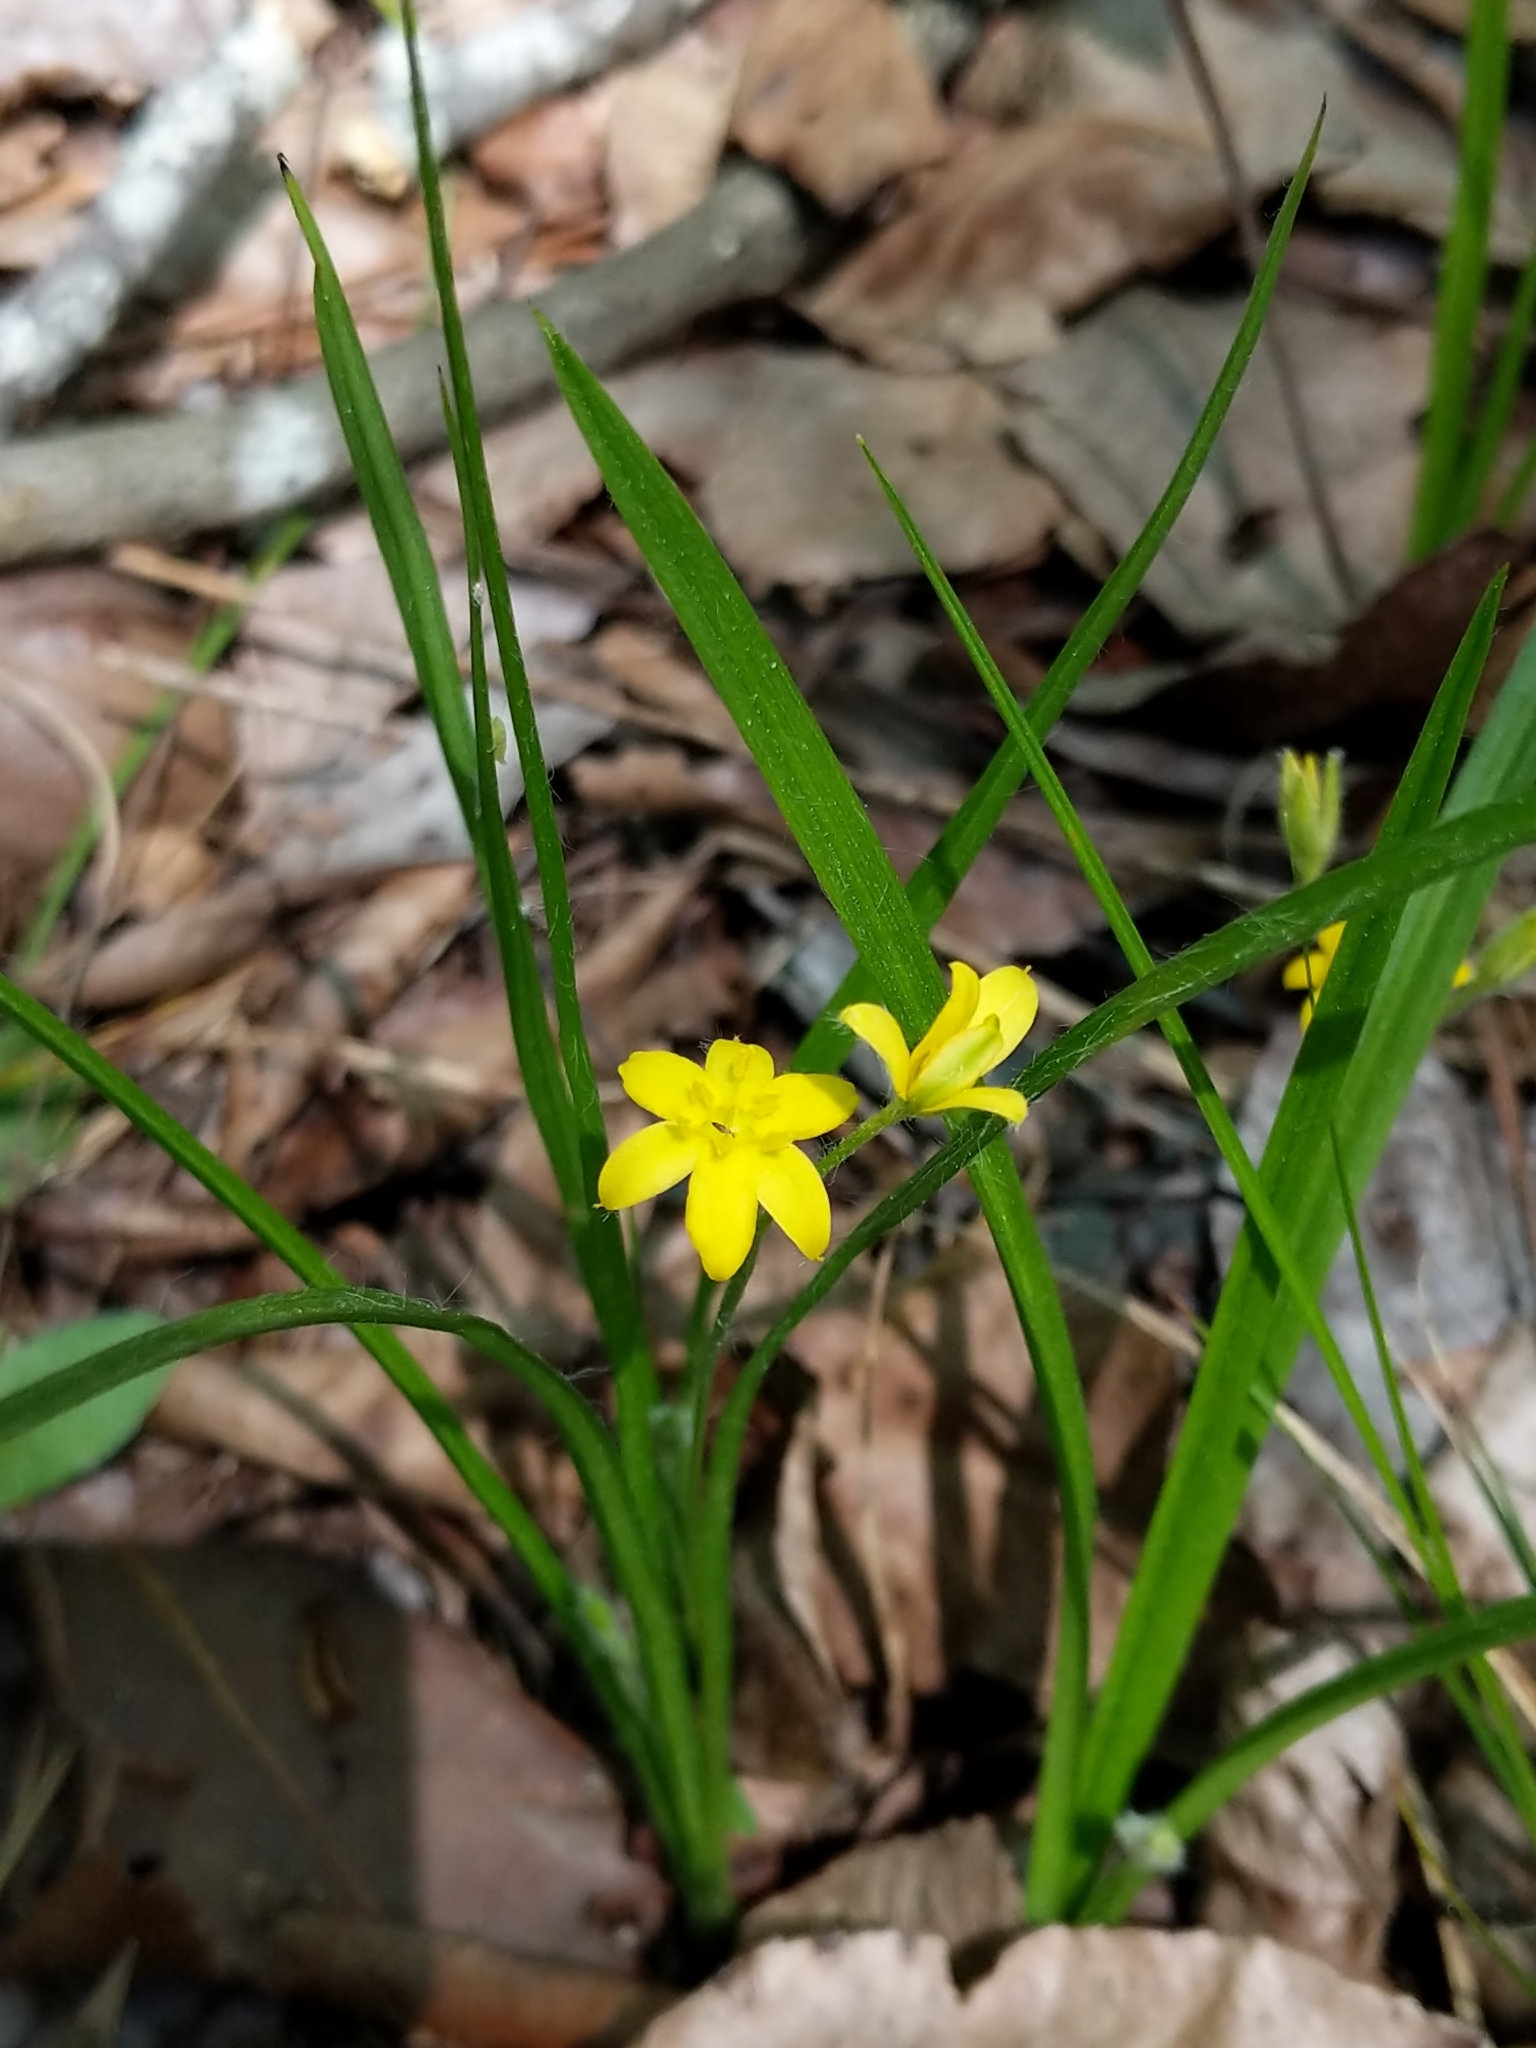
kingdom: Plantae
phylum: Tracheophyta
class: Liliopsida
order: Asparagales
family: Hypoxidaceae
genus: Hypoxis
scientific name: Hypoxis hirsuta
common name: Common goldstar
